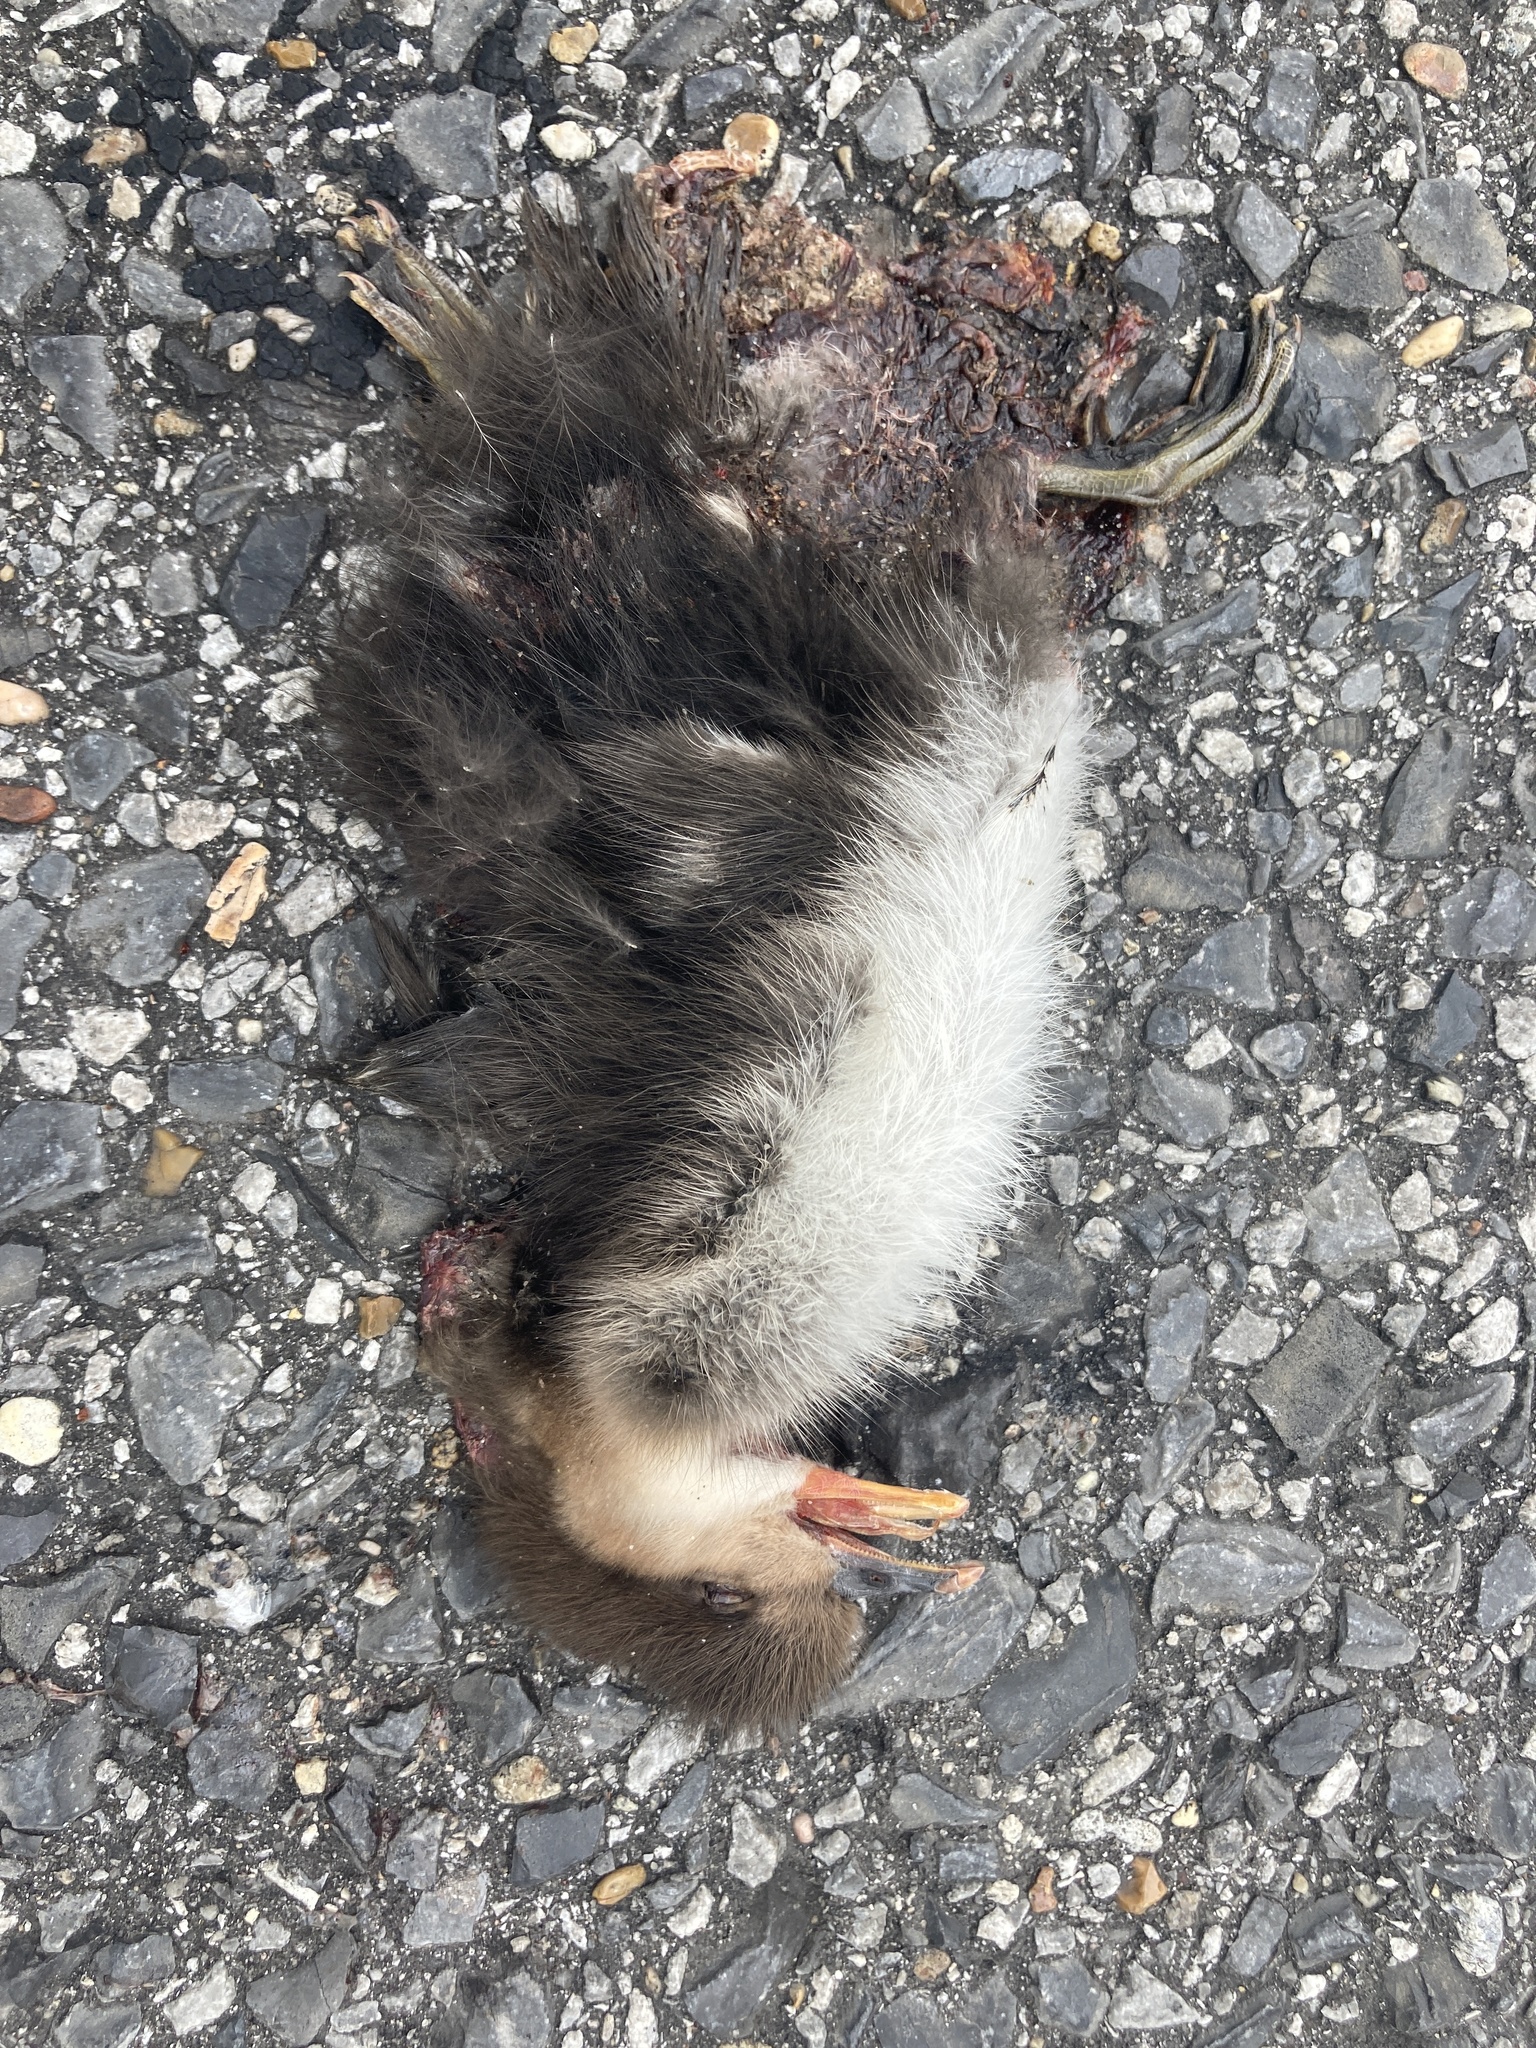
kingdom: Animalia
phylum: Chordata
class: Aves
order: Anseriformes
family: Anatidae
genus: Lophodytes
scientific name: Lophodytes cucullatus
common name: Hooded merganser
